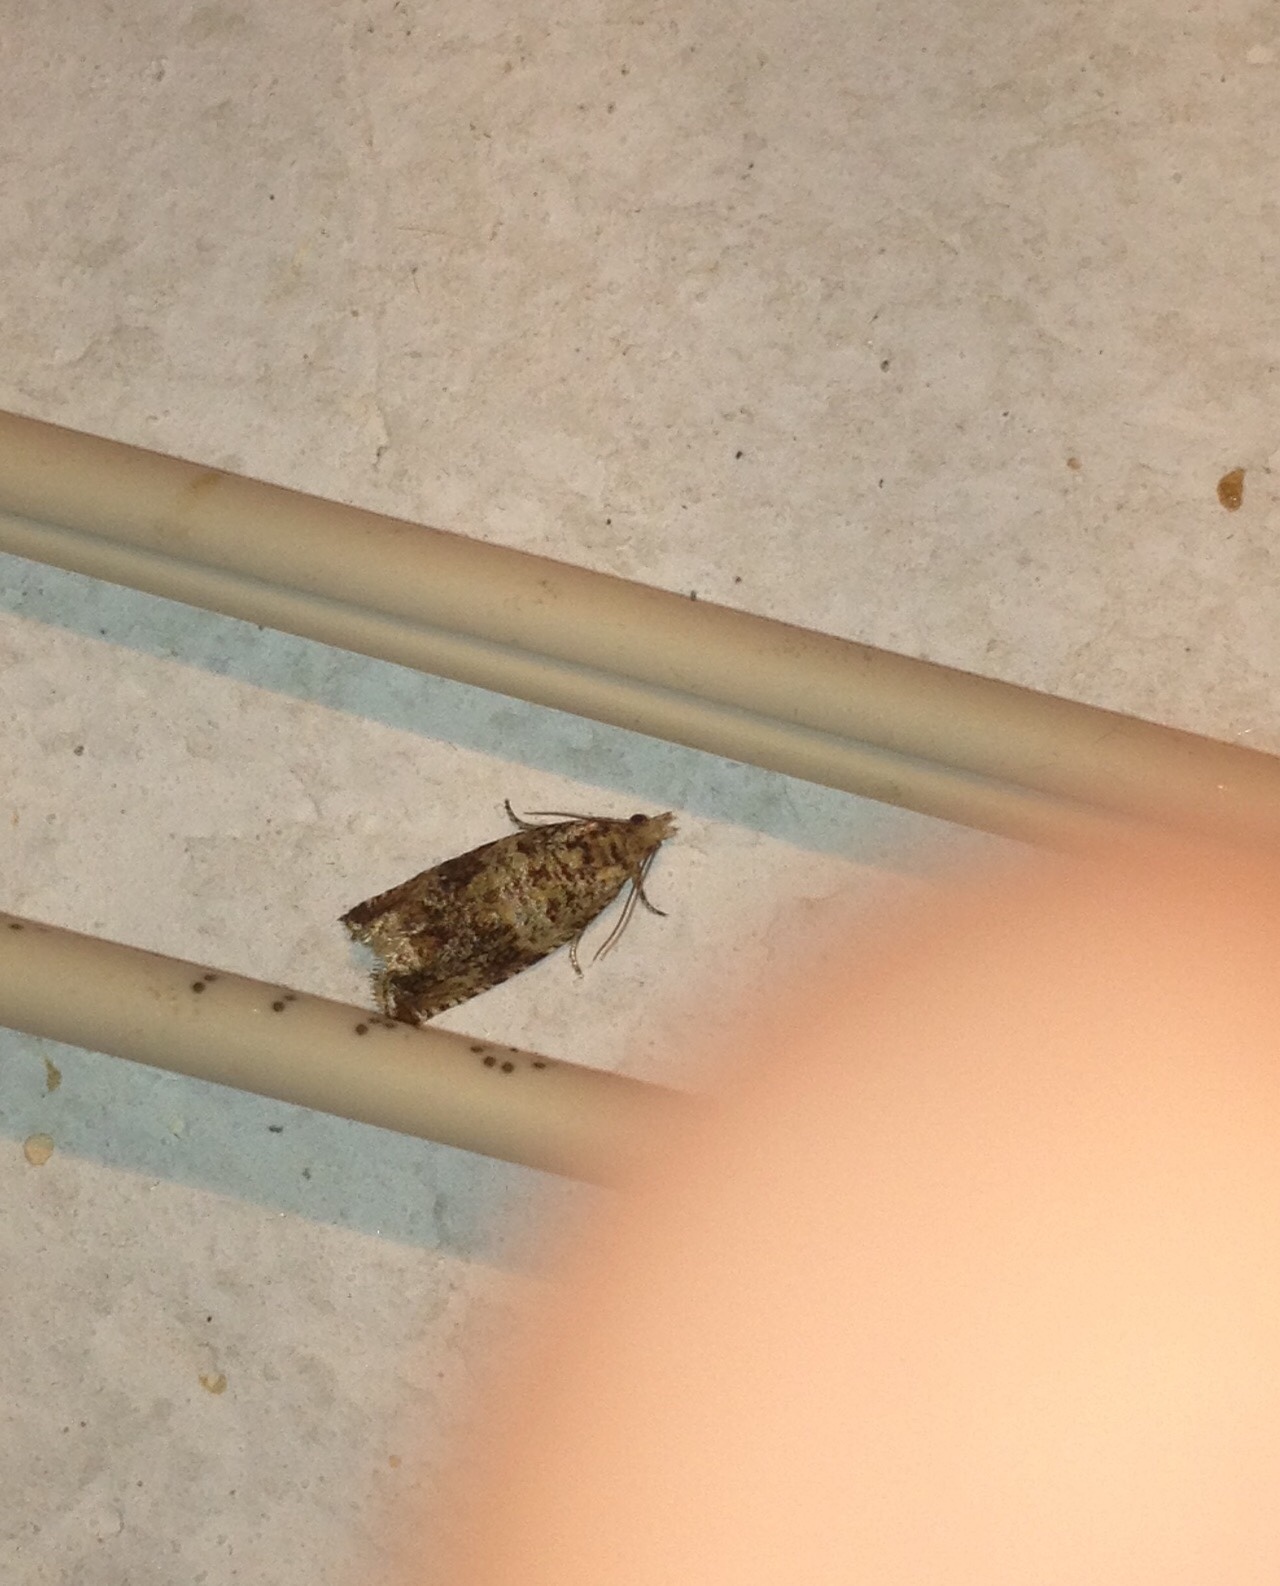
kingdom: Animalia
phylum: Arthropoda
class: Insecta
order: Lepidoptera
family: Tortricidae
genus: Syricoris
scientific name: Syricoris lacunana
